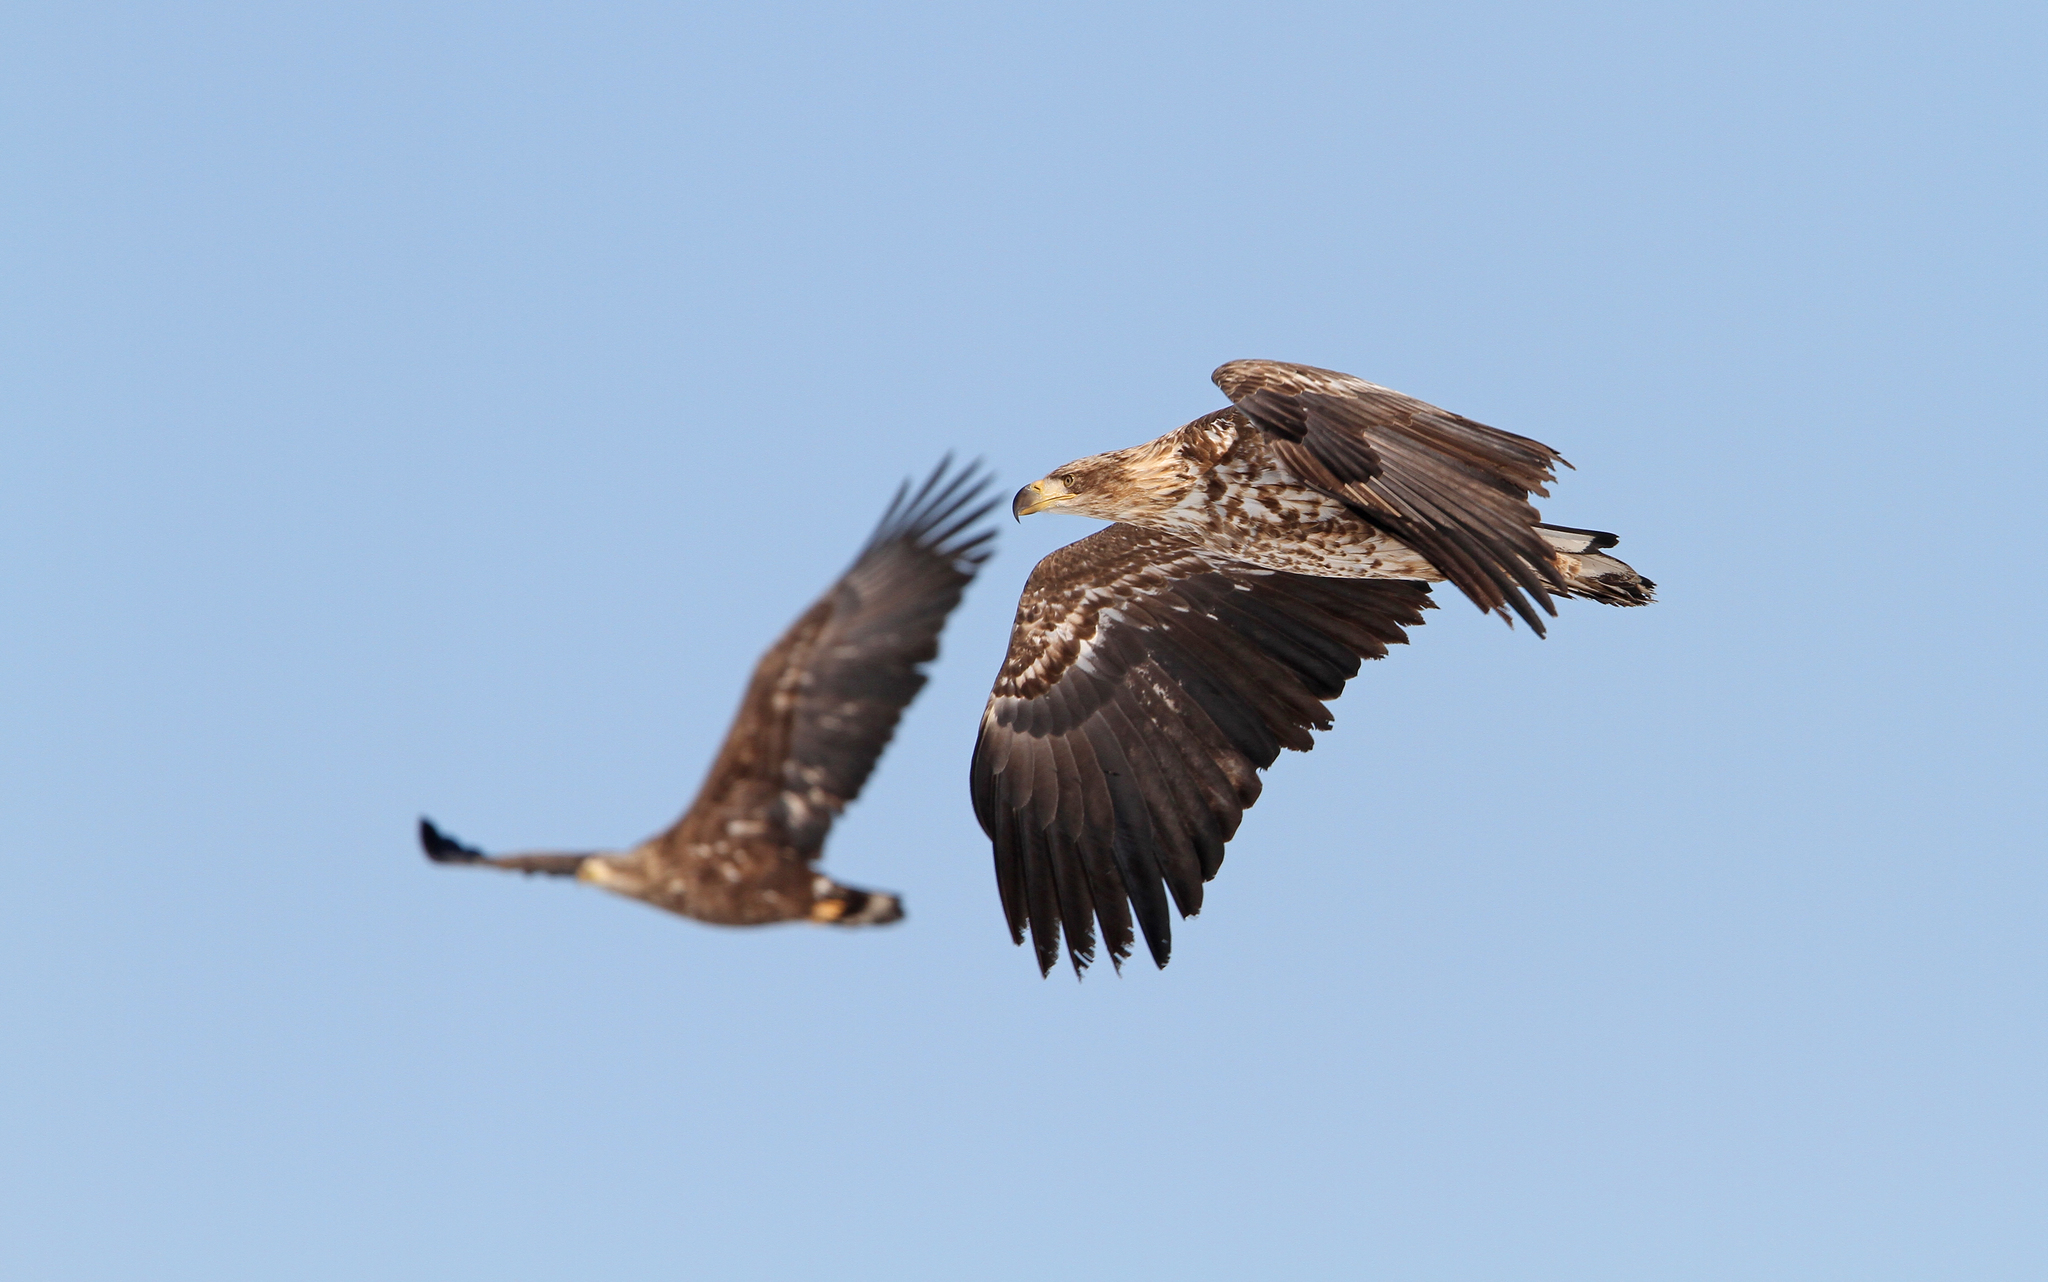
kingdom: Animalia
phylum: Chordata
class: Aves
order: Accipitriformes
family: Accipitridae
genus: Haliaeetus
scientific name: Haliaeetus albicilla
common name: White-tailed eagle
